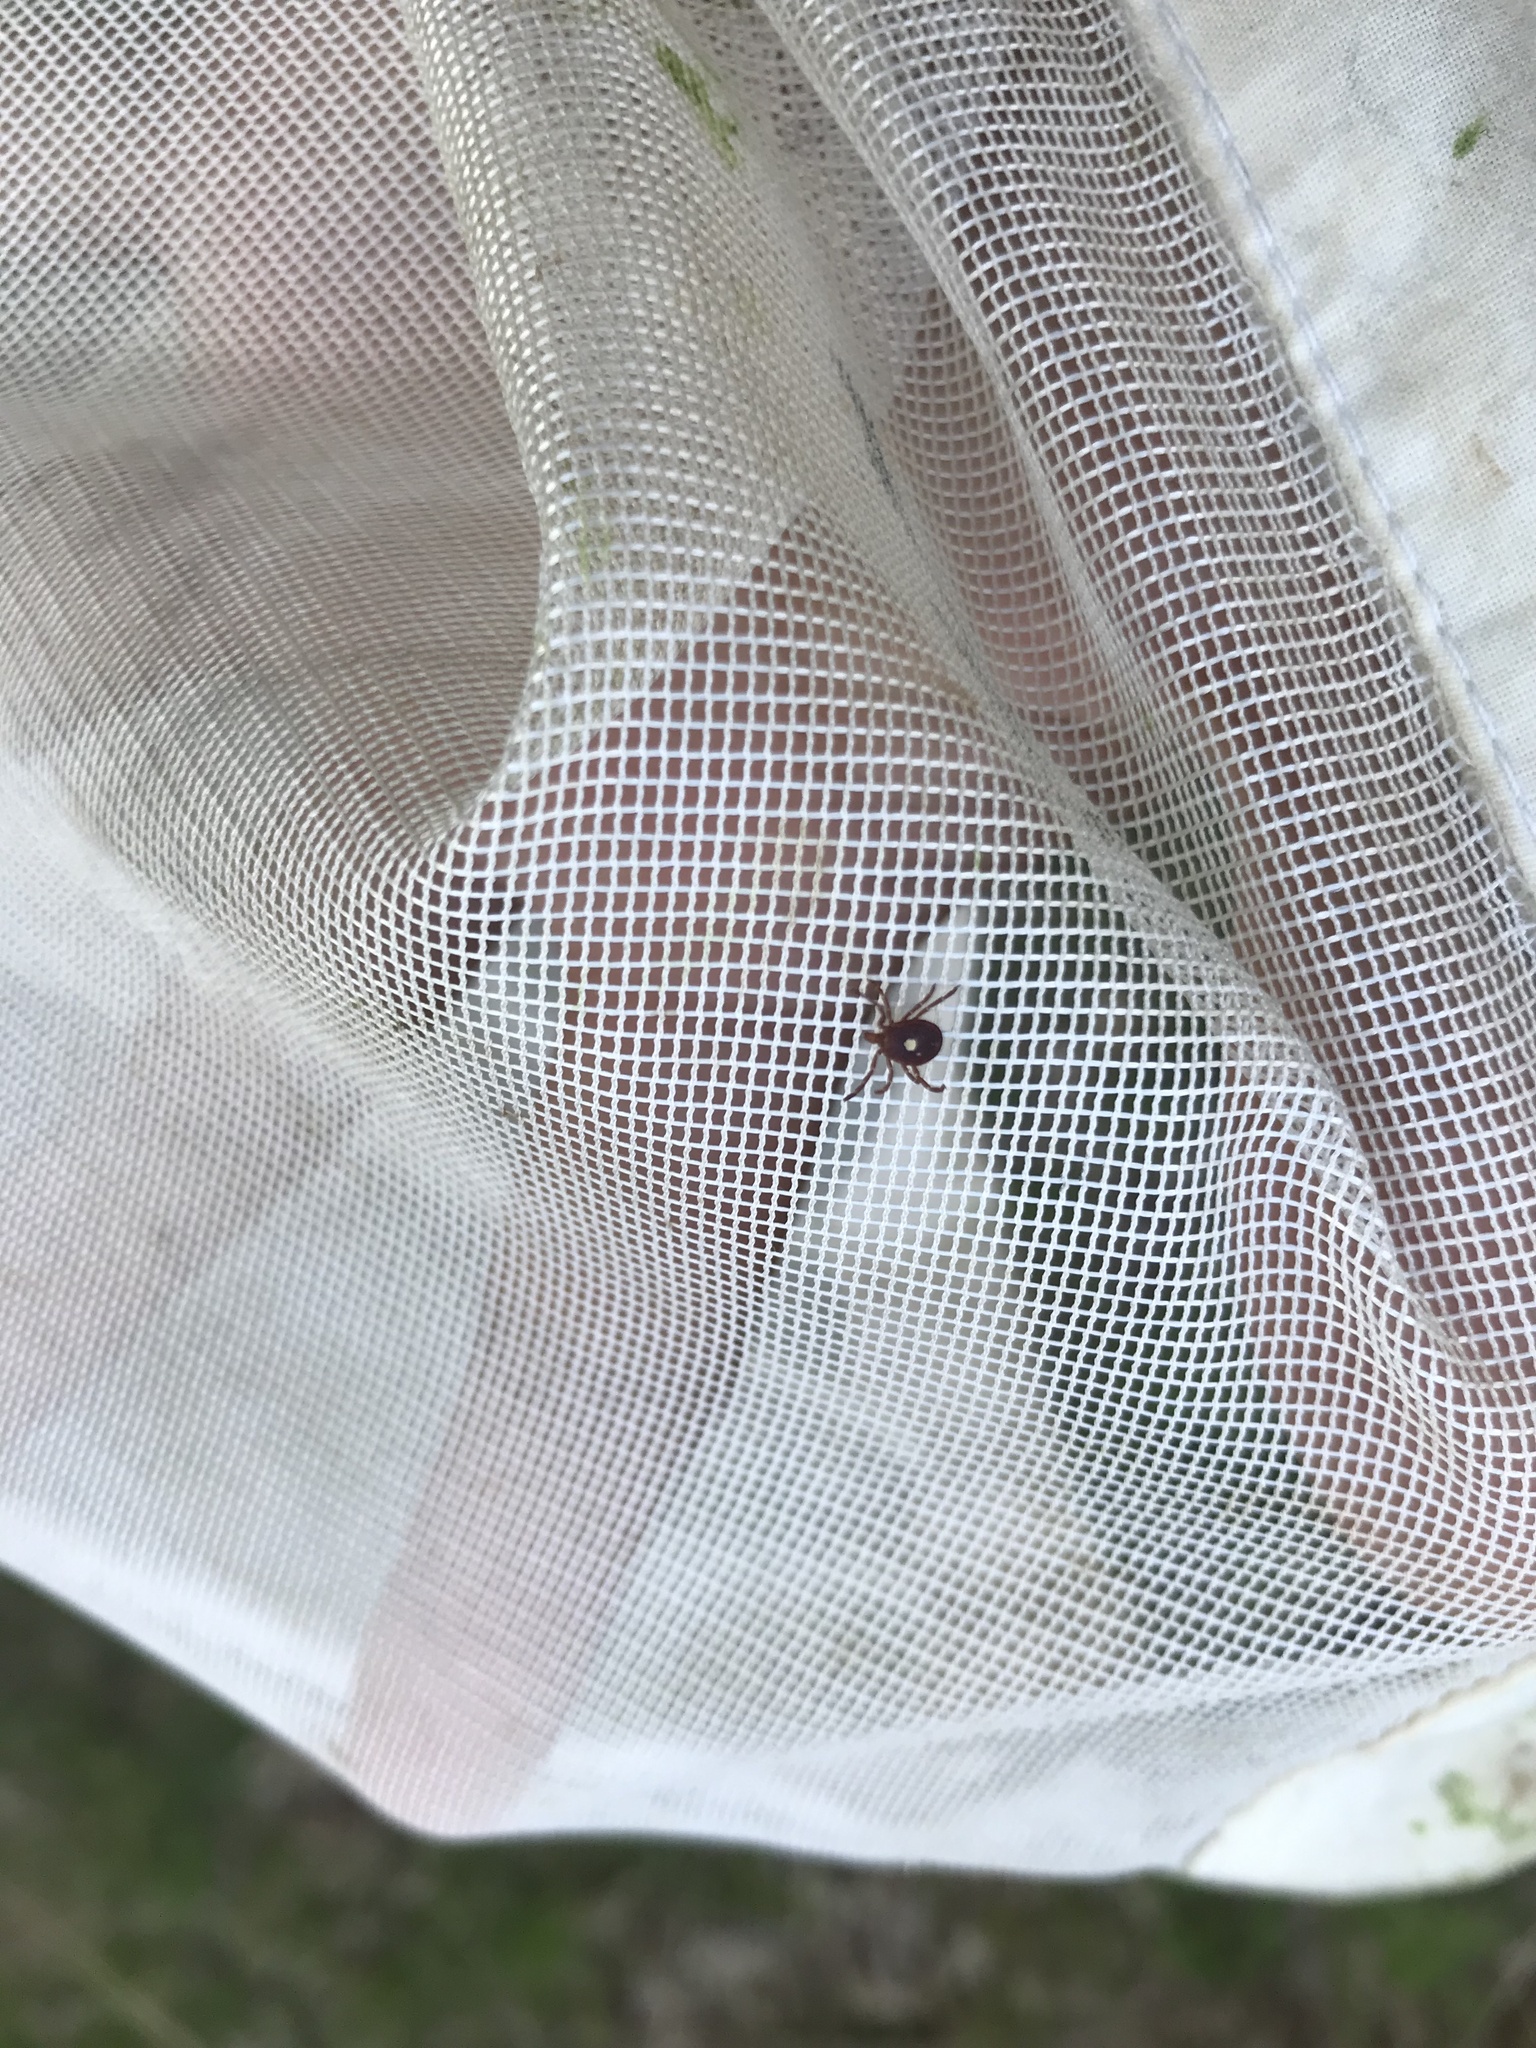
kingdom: Animalia
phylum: Arthropoda
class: Arachnida
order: Ixodida
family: Ixodidae
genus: Amblyomma
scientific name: Amblyomma americanum
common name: Lone star tick
